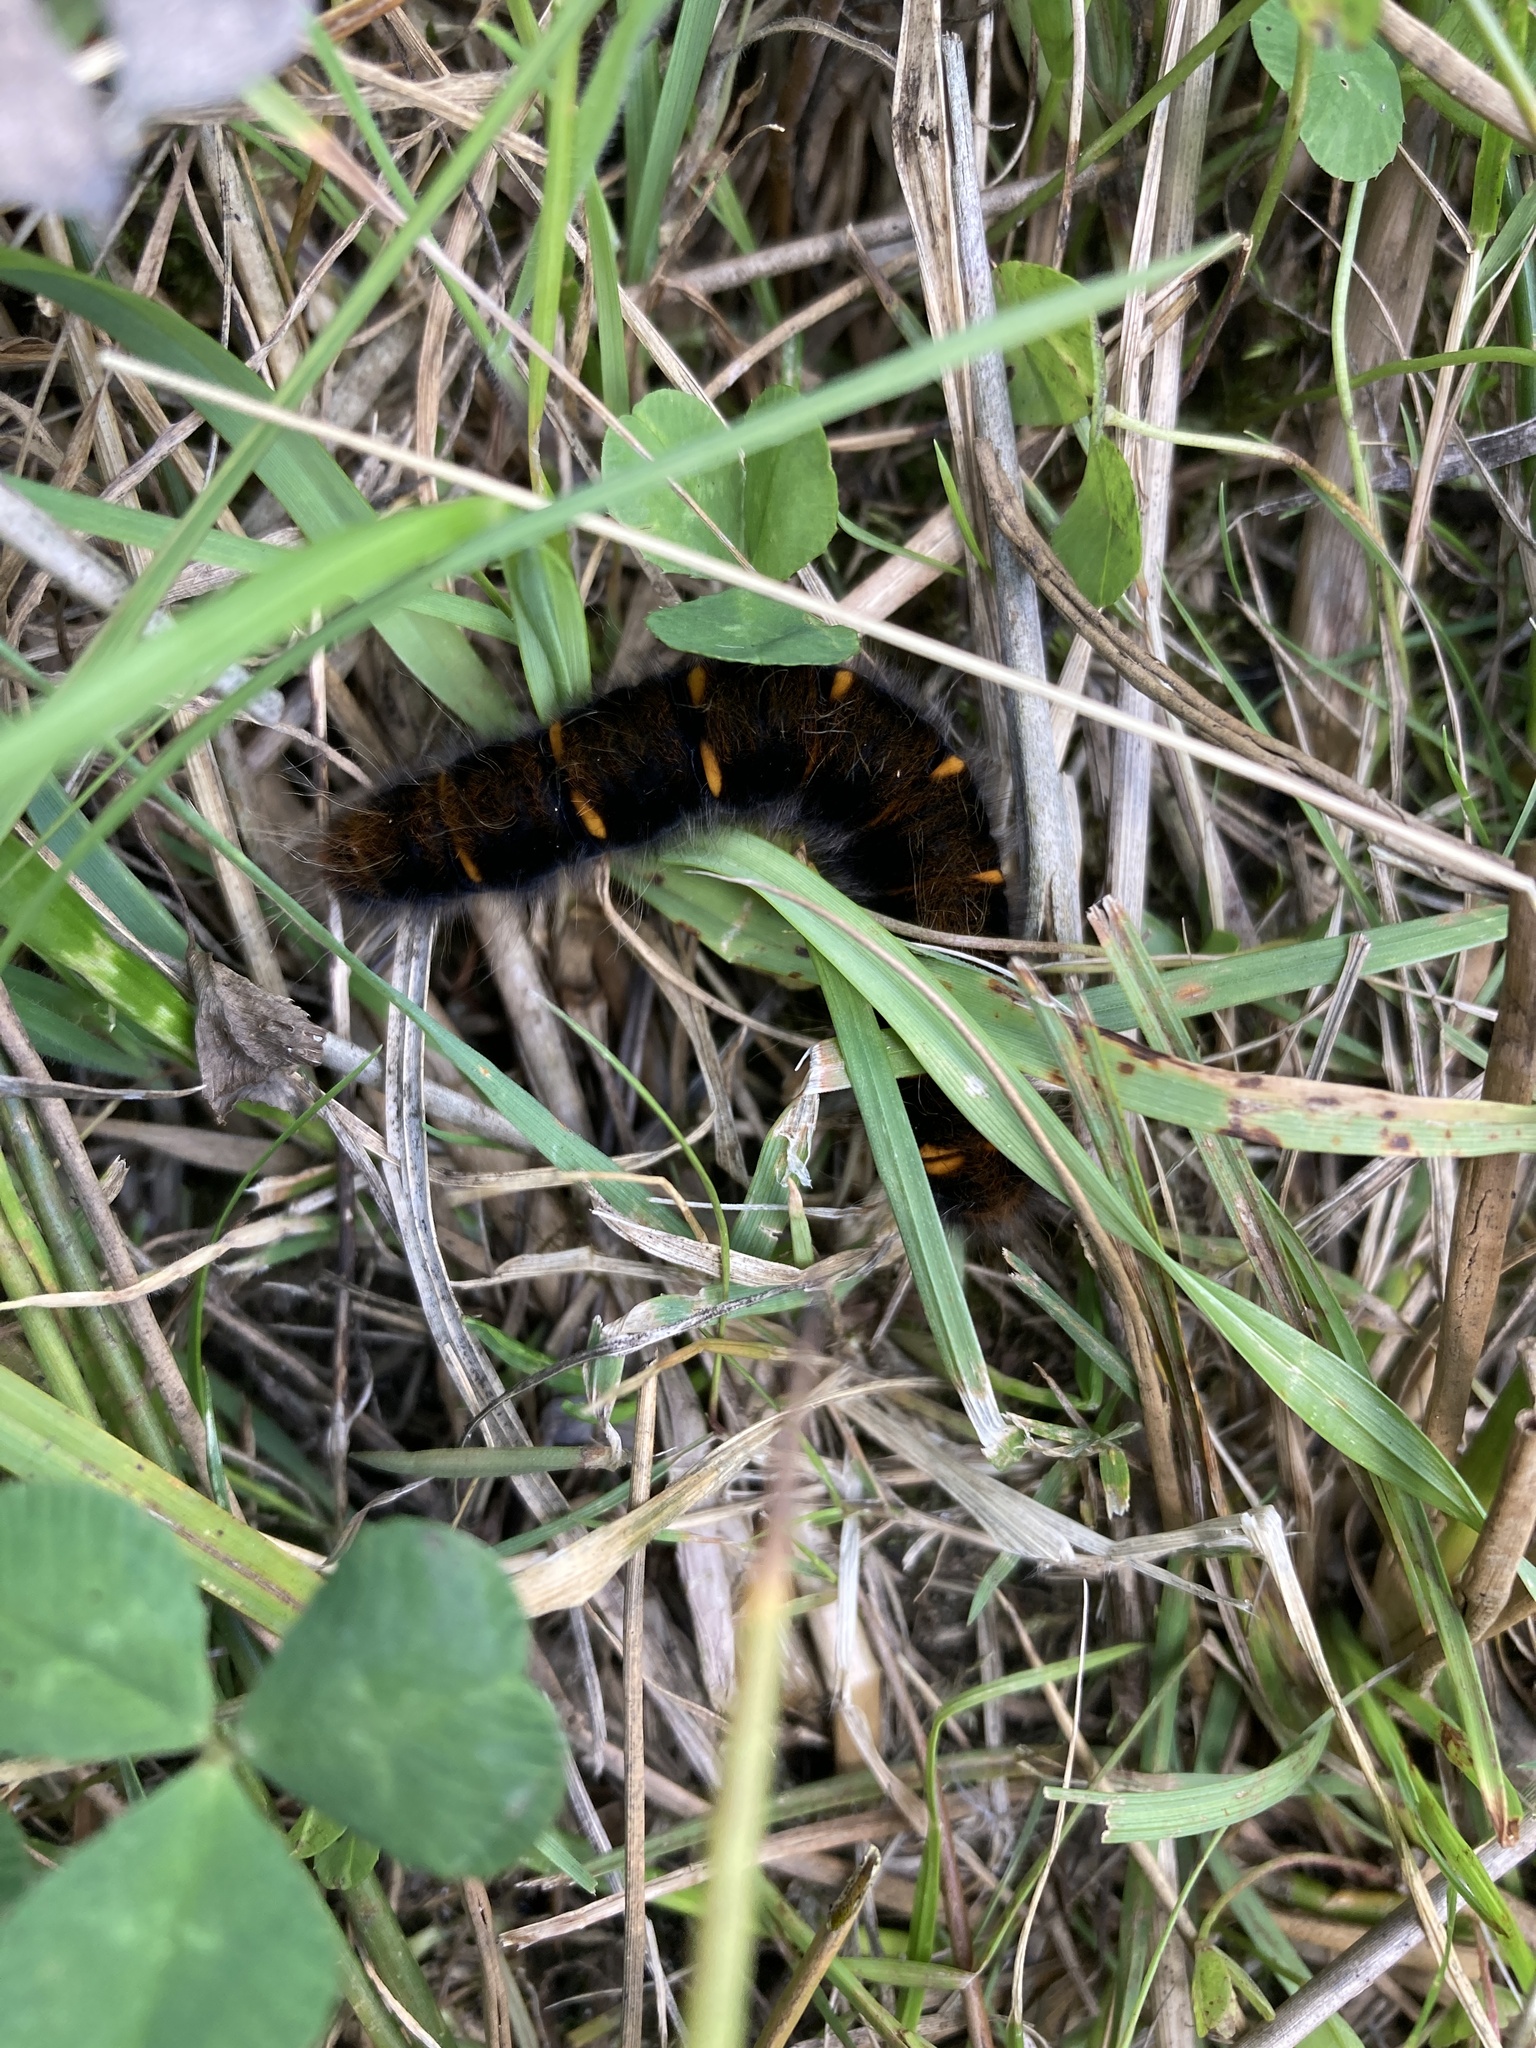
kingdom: Animalia
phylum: Arthropoda
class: Insecta
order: Lepidoptera
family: Lasiocampidae
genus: Macrothylacia
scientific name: Macrothylacia rubi
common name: Fox moth
